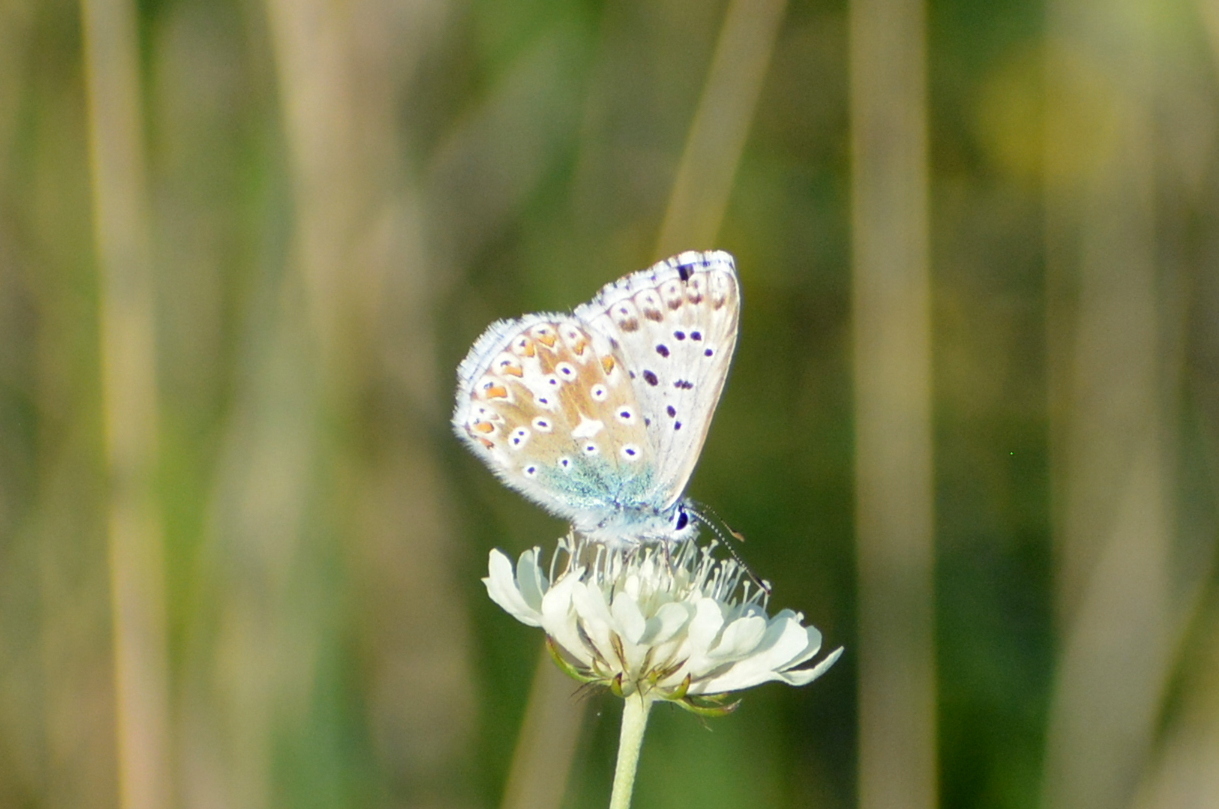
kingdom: Animalia
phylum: Arthropoda
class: Insecta
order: Lepidoptera
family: Lycaenidae
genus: Lysandra
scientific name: Lysandra coridon
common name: Chalkhill blue
